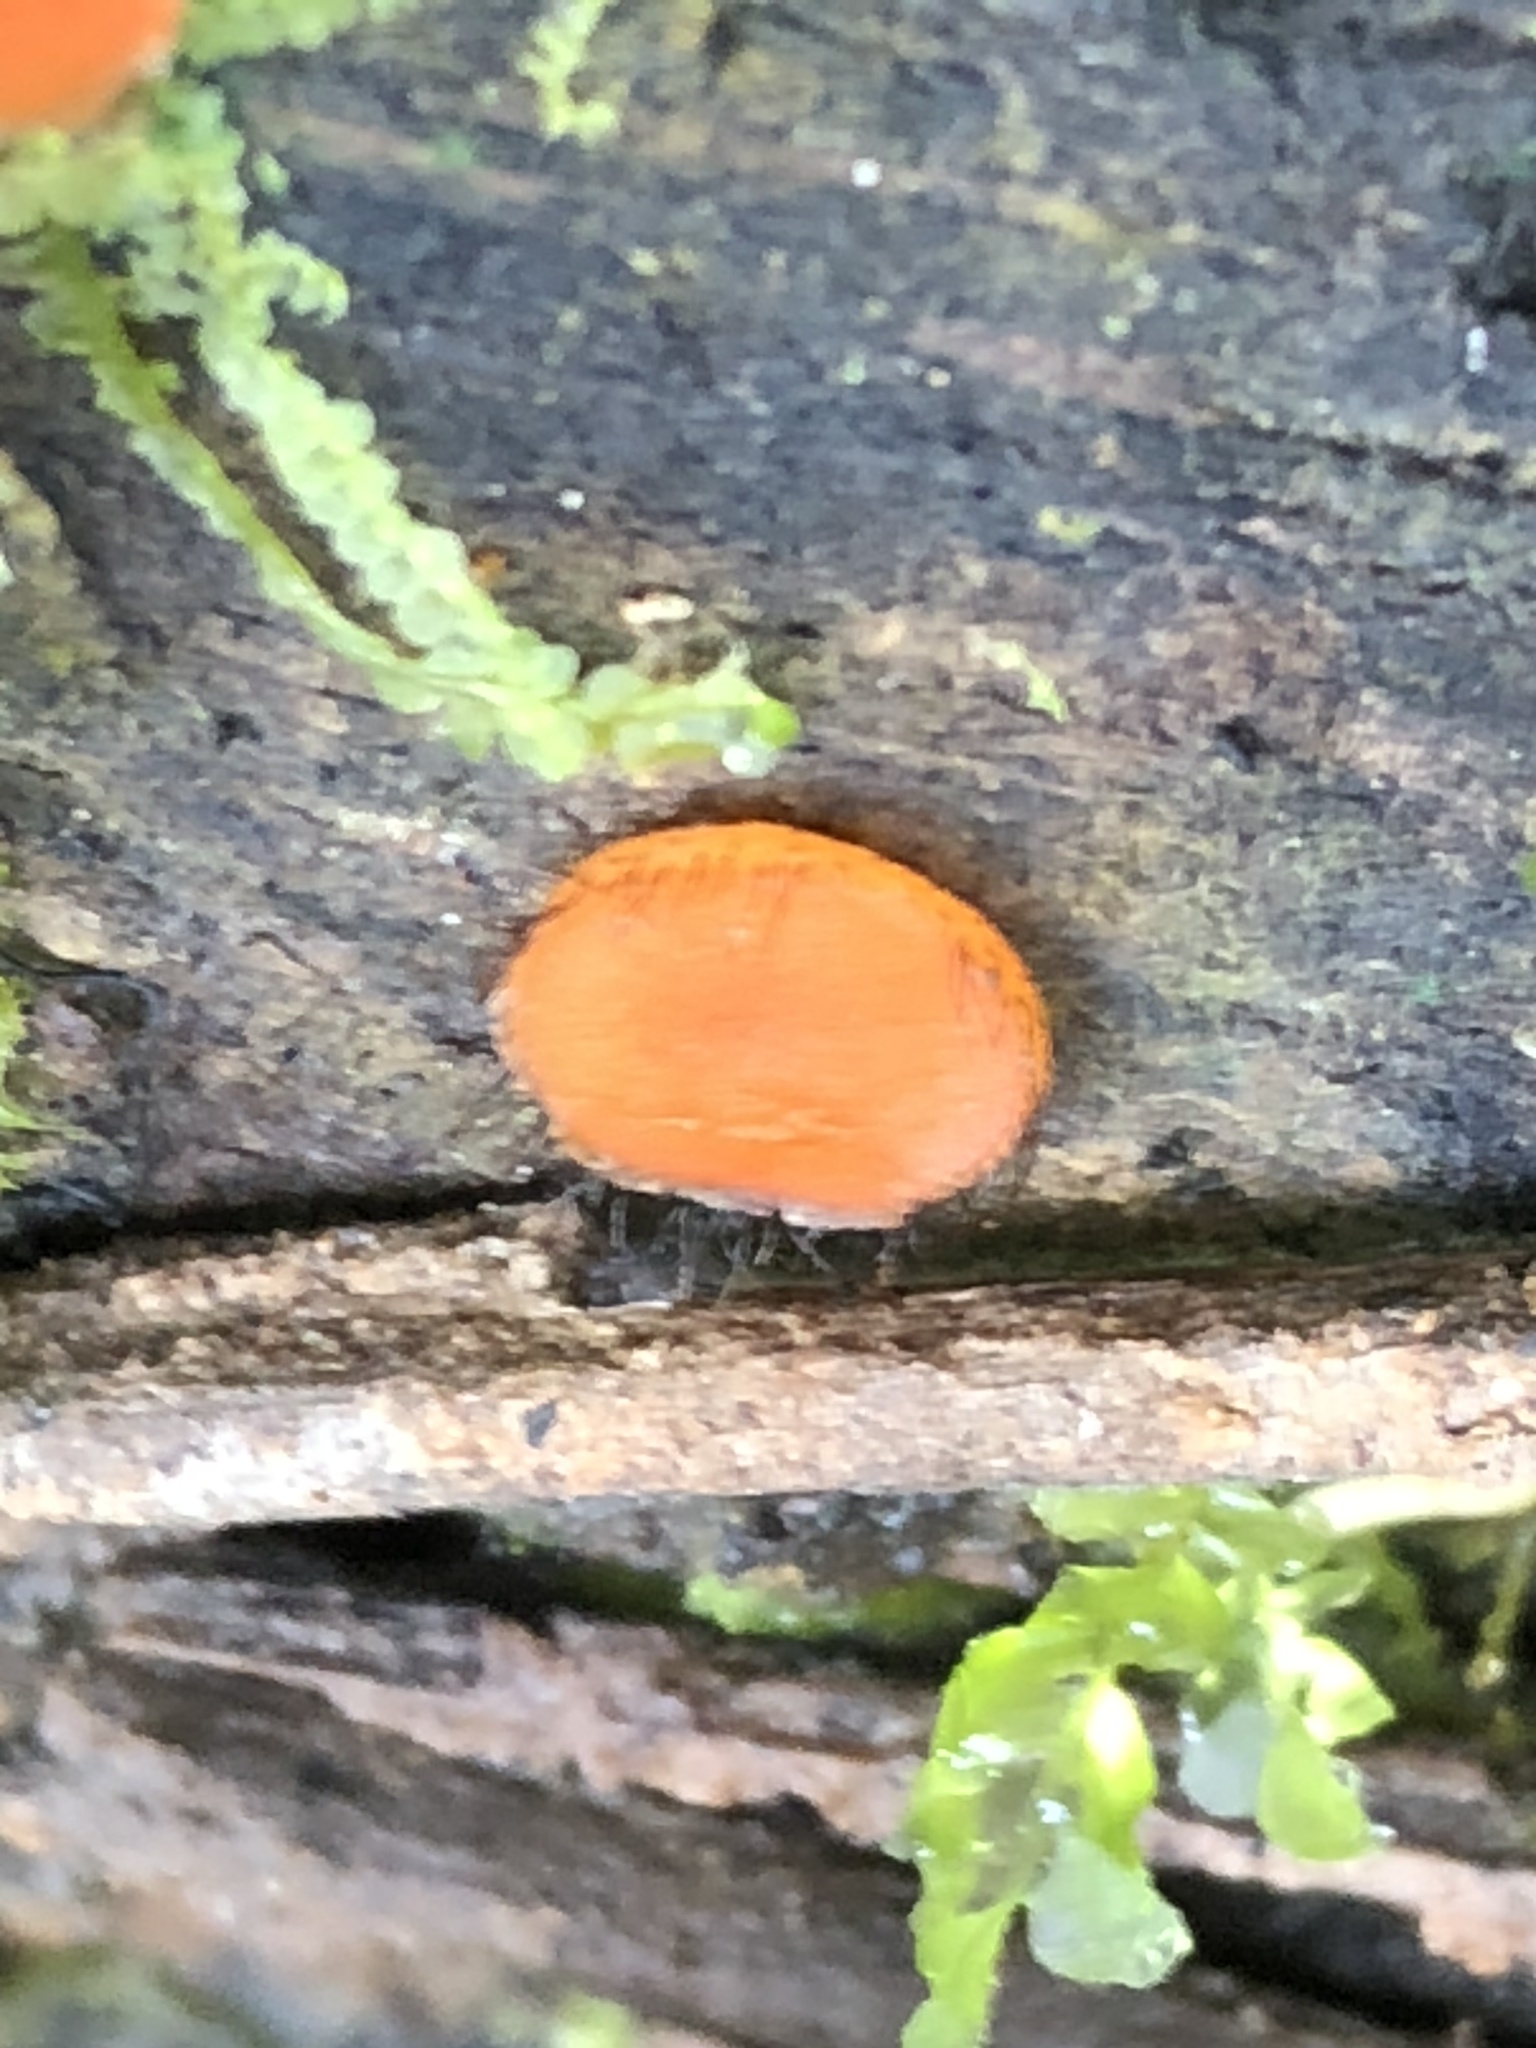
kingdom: Fungi
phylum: Ascomycota
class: Pezizomycetes
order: Pezizales
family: Pyronemataceae
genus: Scutellinia
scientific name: Scutellinia
